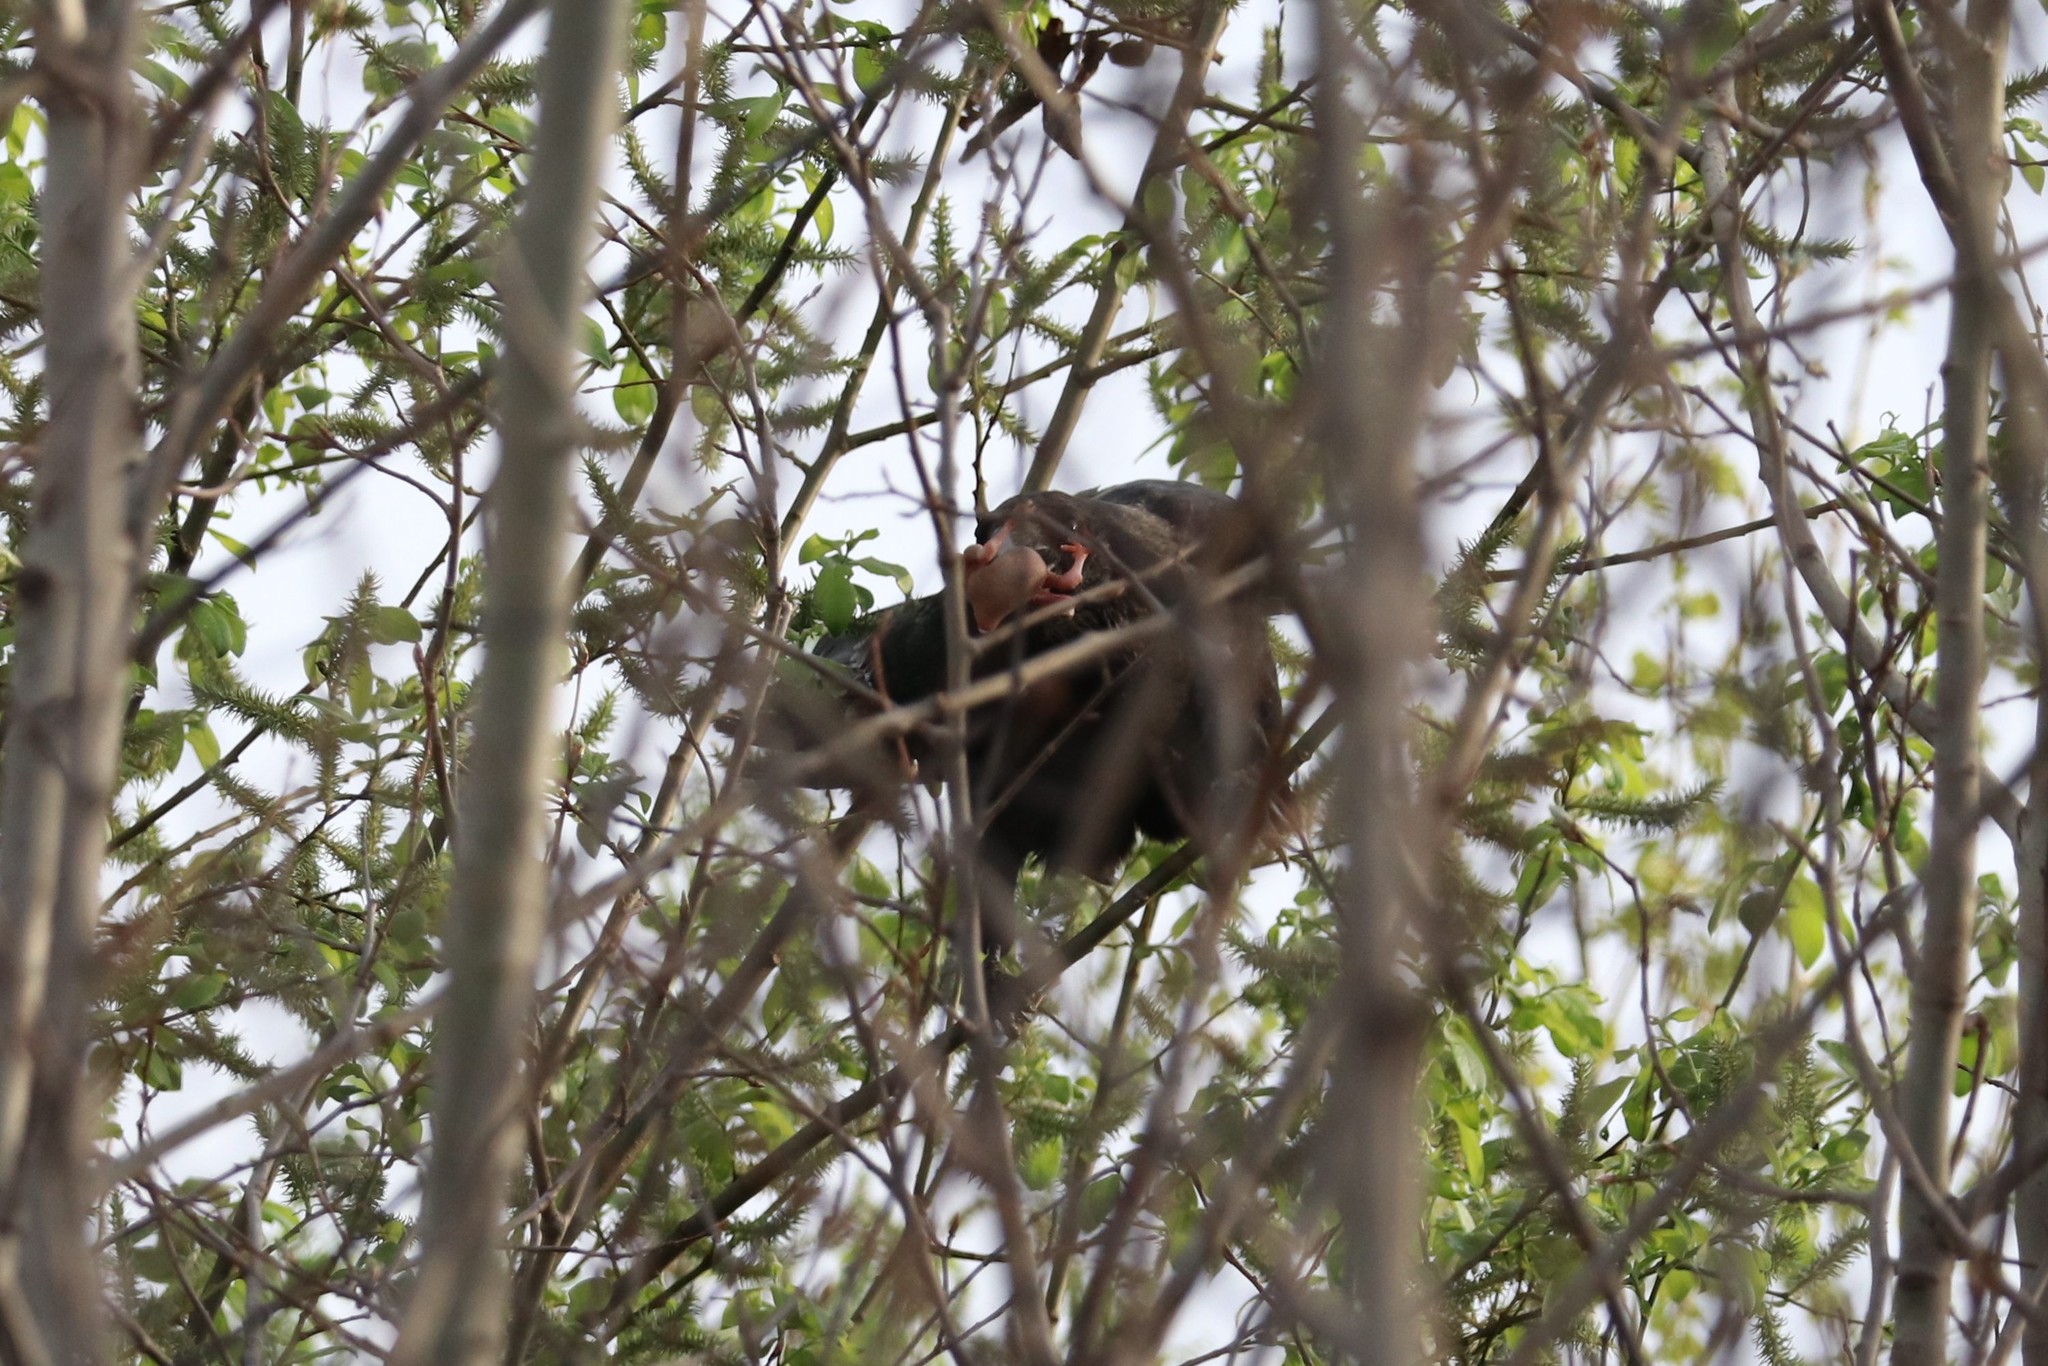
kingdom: Animalia
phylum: Chordata
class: Aves
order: Passeriformes
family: Corvidae
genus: Corvus
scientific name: Corvus corax
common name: Common raven
